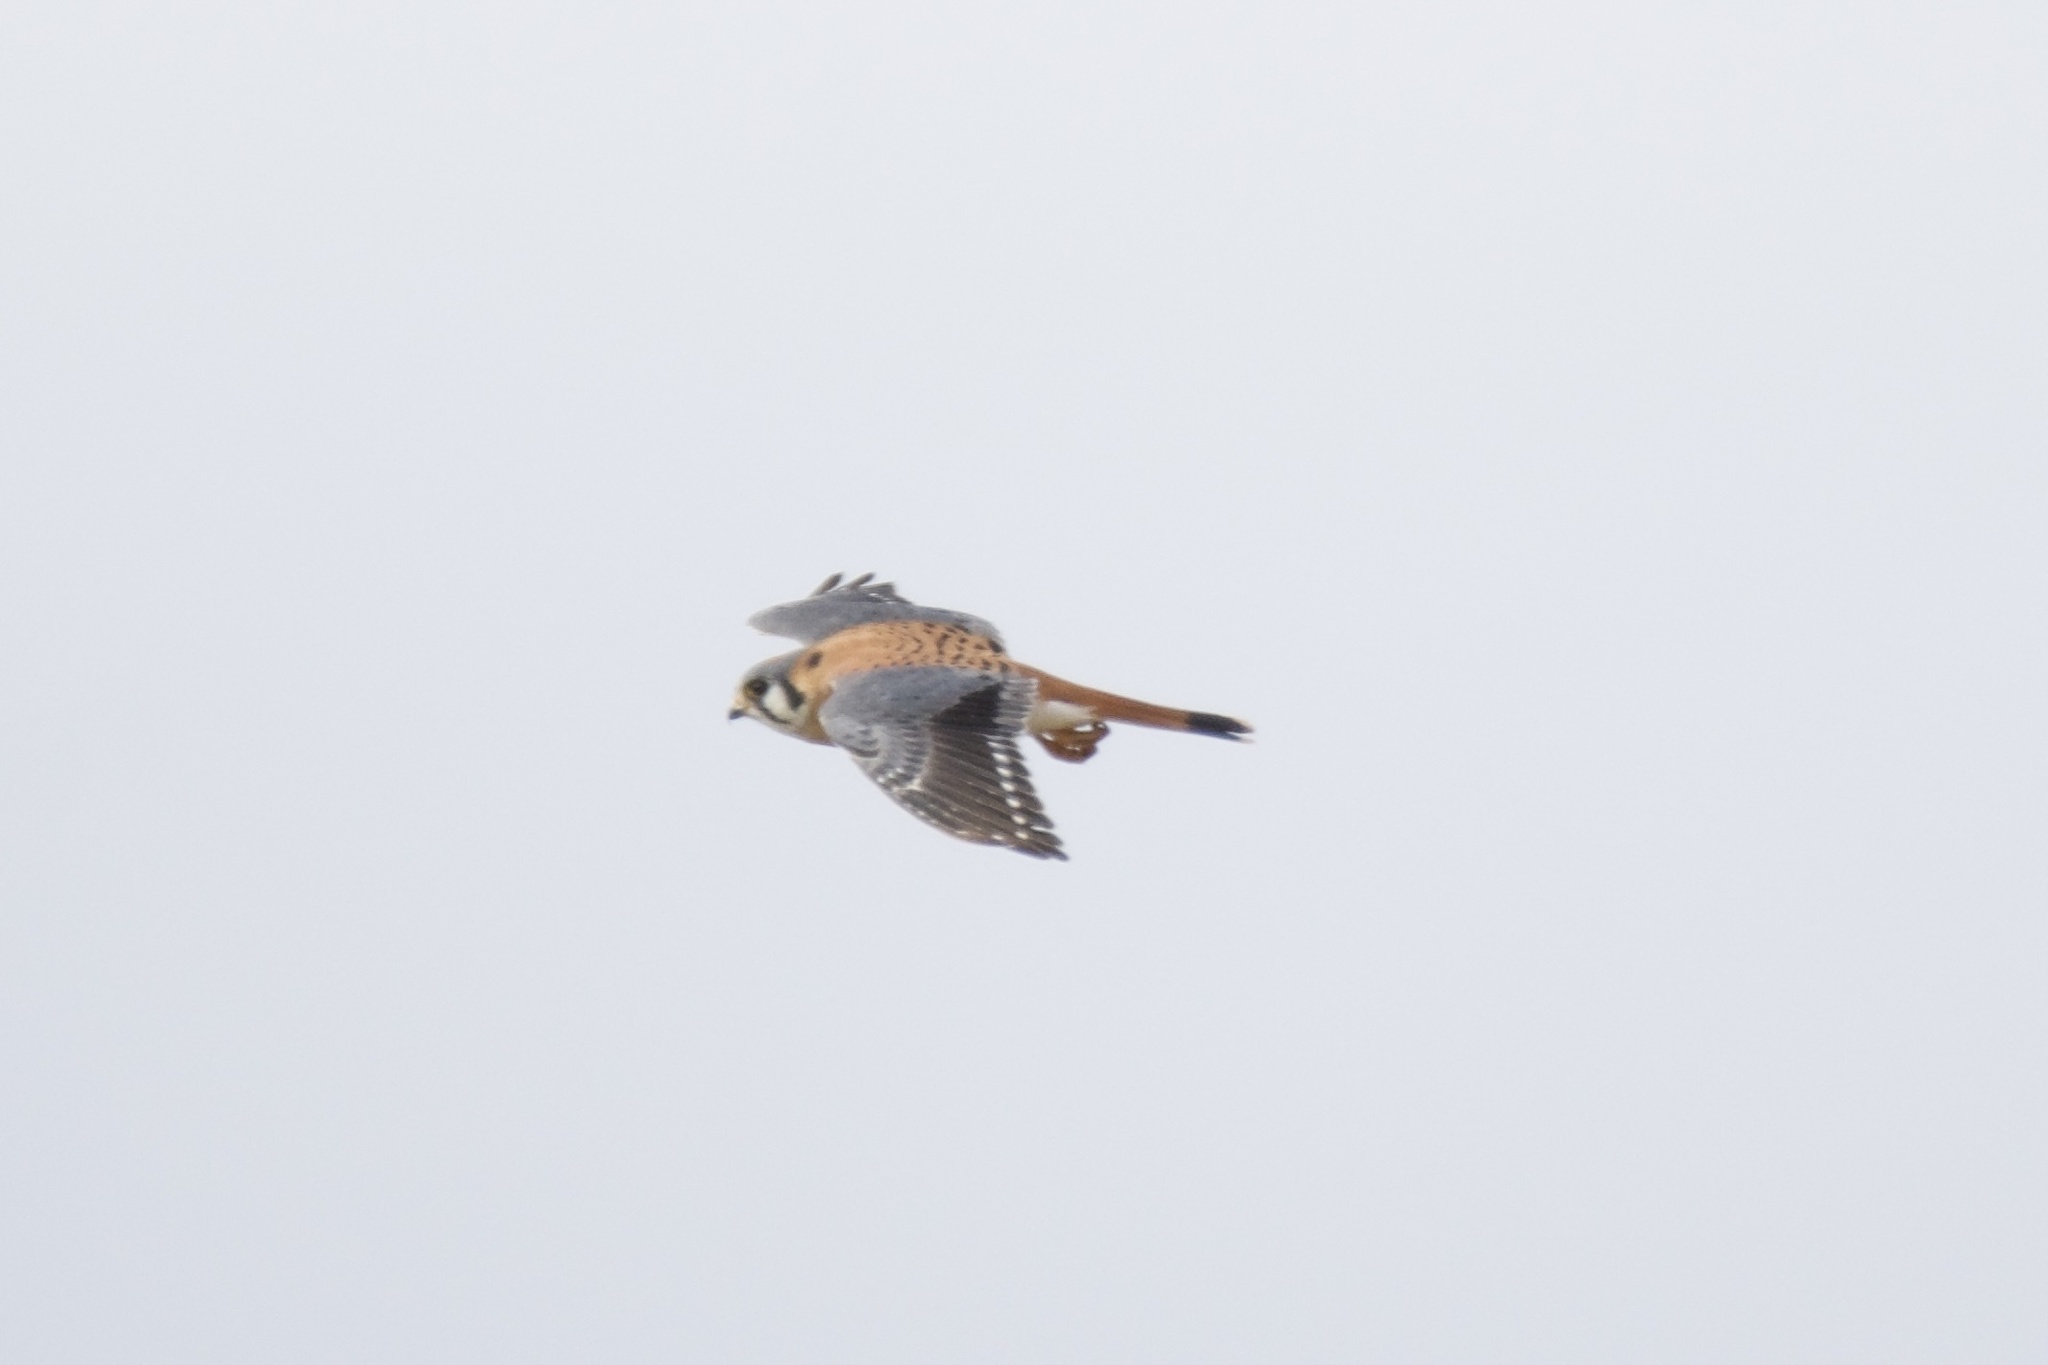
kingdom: Animalia
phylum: Chordata
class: Aves
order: Falconiformes
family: Falconidae
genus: Falco
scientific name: Falco sparverius
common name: American kestrel
